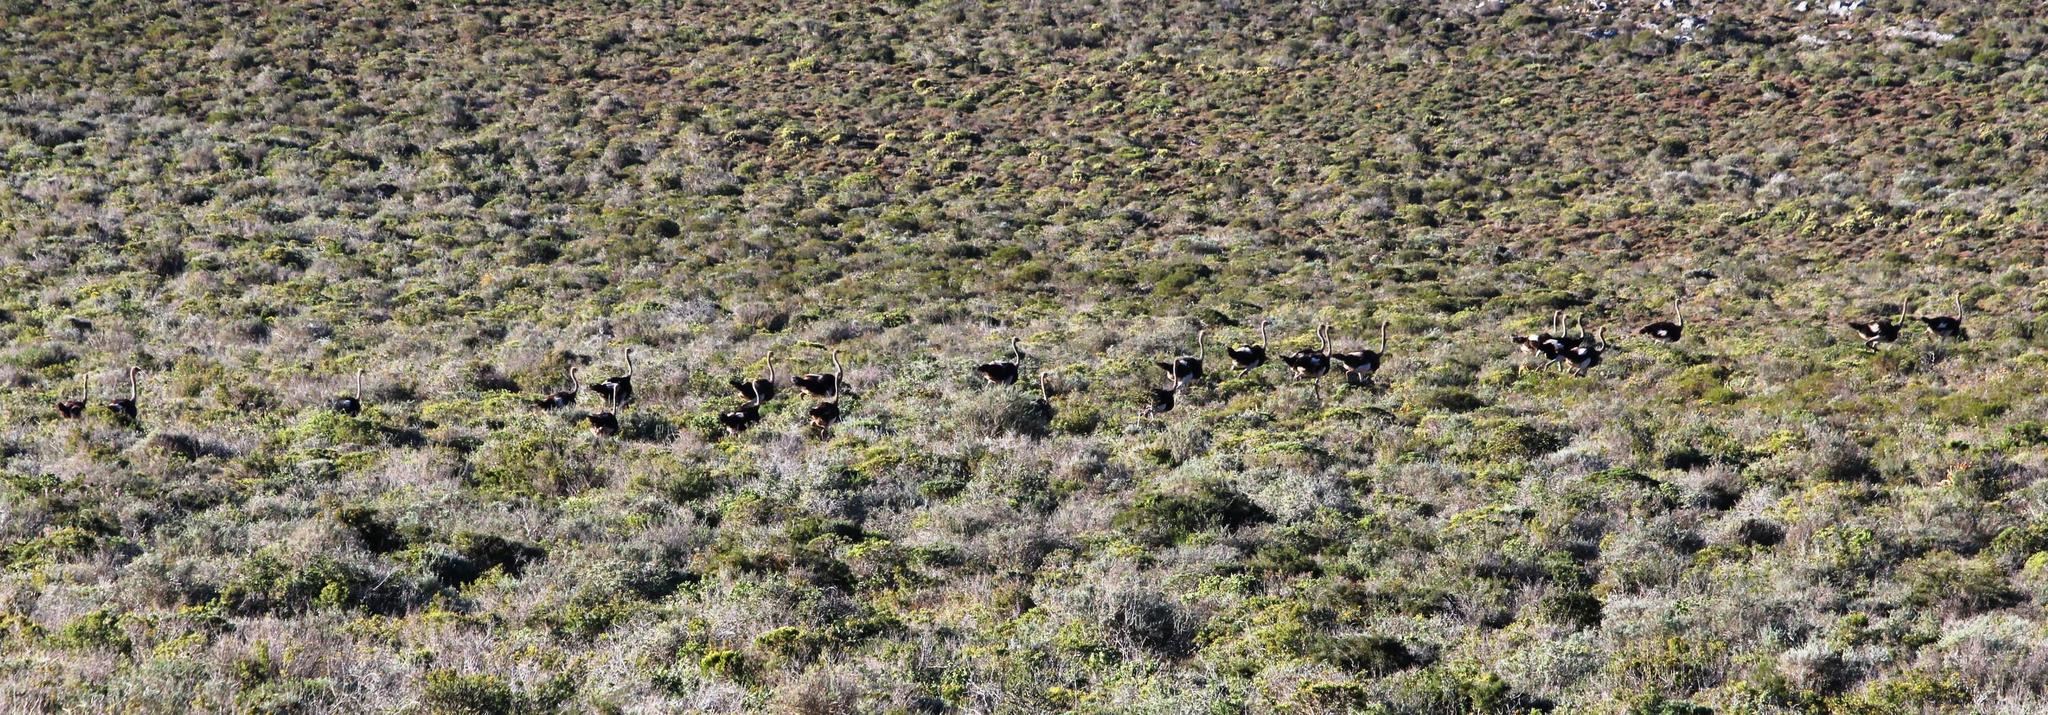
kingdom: Animalia
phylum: Chordata
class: Aves
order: Struthioniformes
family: Struthionidae
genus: Struthio
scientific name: Struthio camelus
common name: Common ostrich
